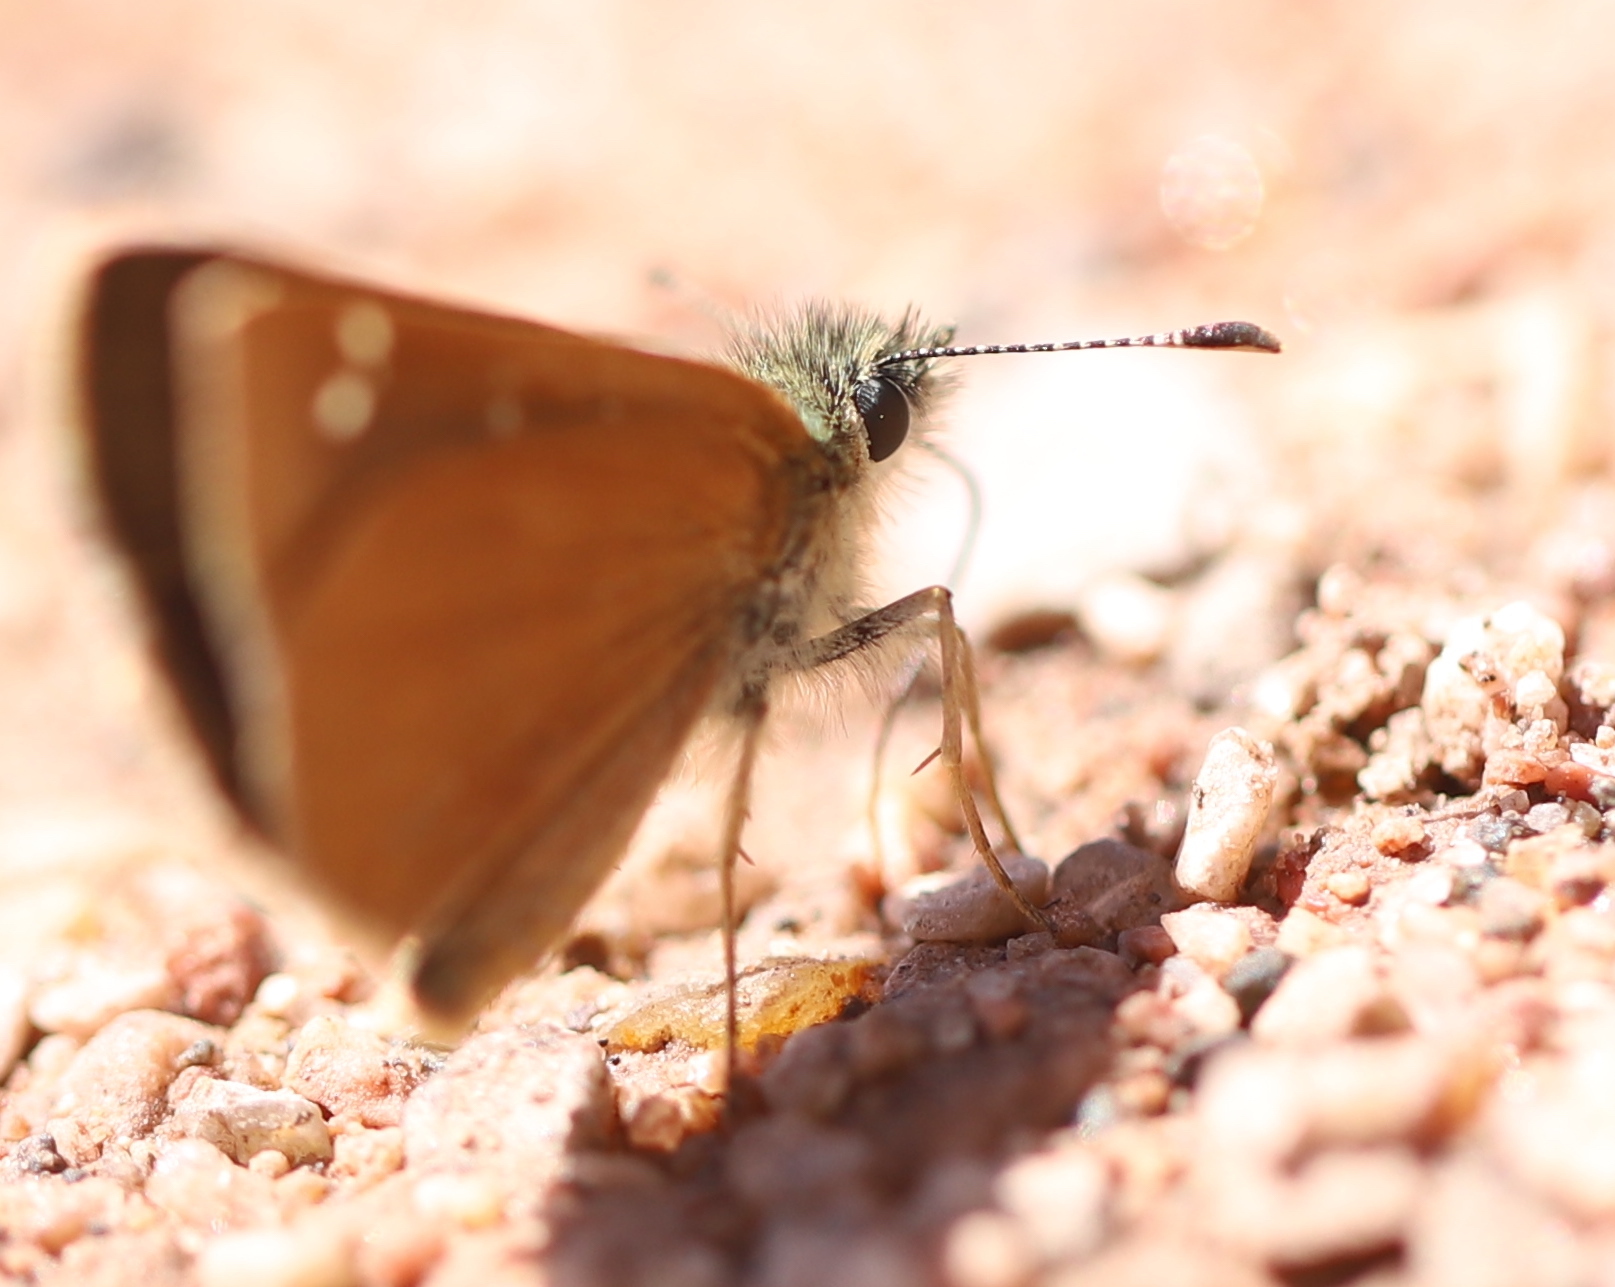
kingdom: Animalia
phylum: Arthropoda
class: Insecta
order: Lepidoptera
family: Hesperiidae
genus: Piruna
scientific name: Piruna pirus
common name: Russet skipperling
